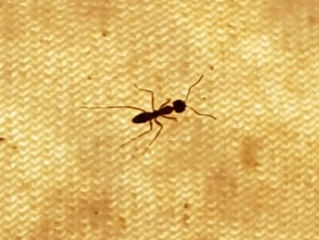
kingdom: Animalia
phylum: Arthropoda
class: Insecta
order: Hymenoptera
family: Formicidae
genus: Dorymyrmex
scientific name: Dorymyrmex bureni
